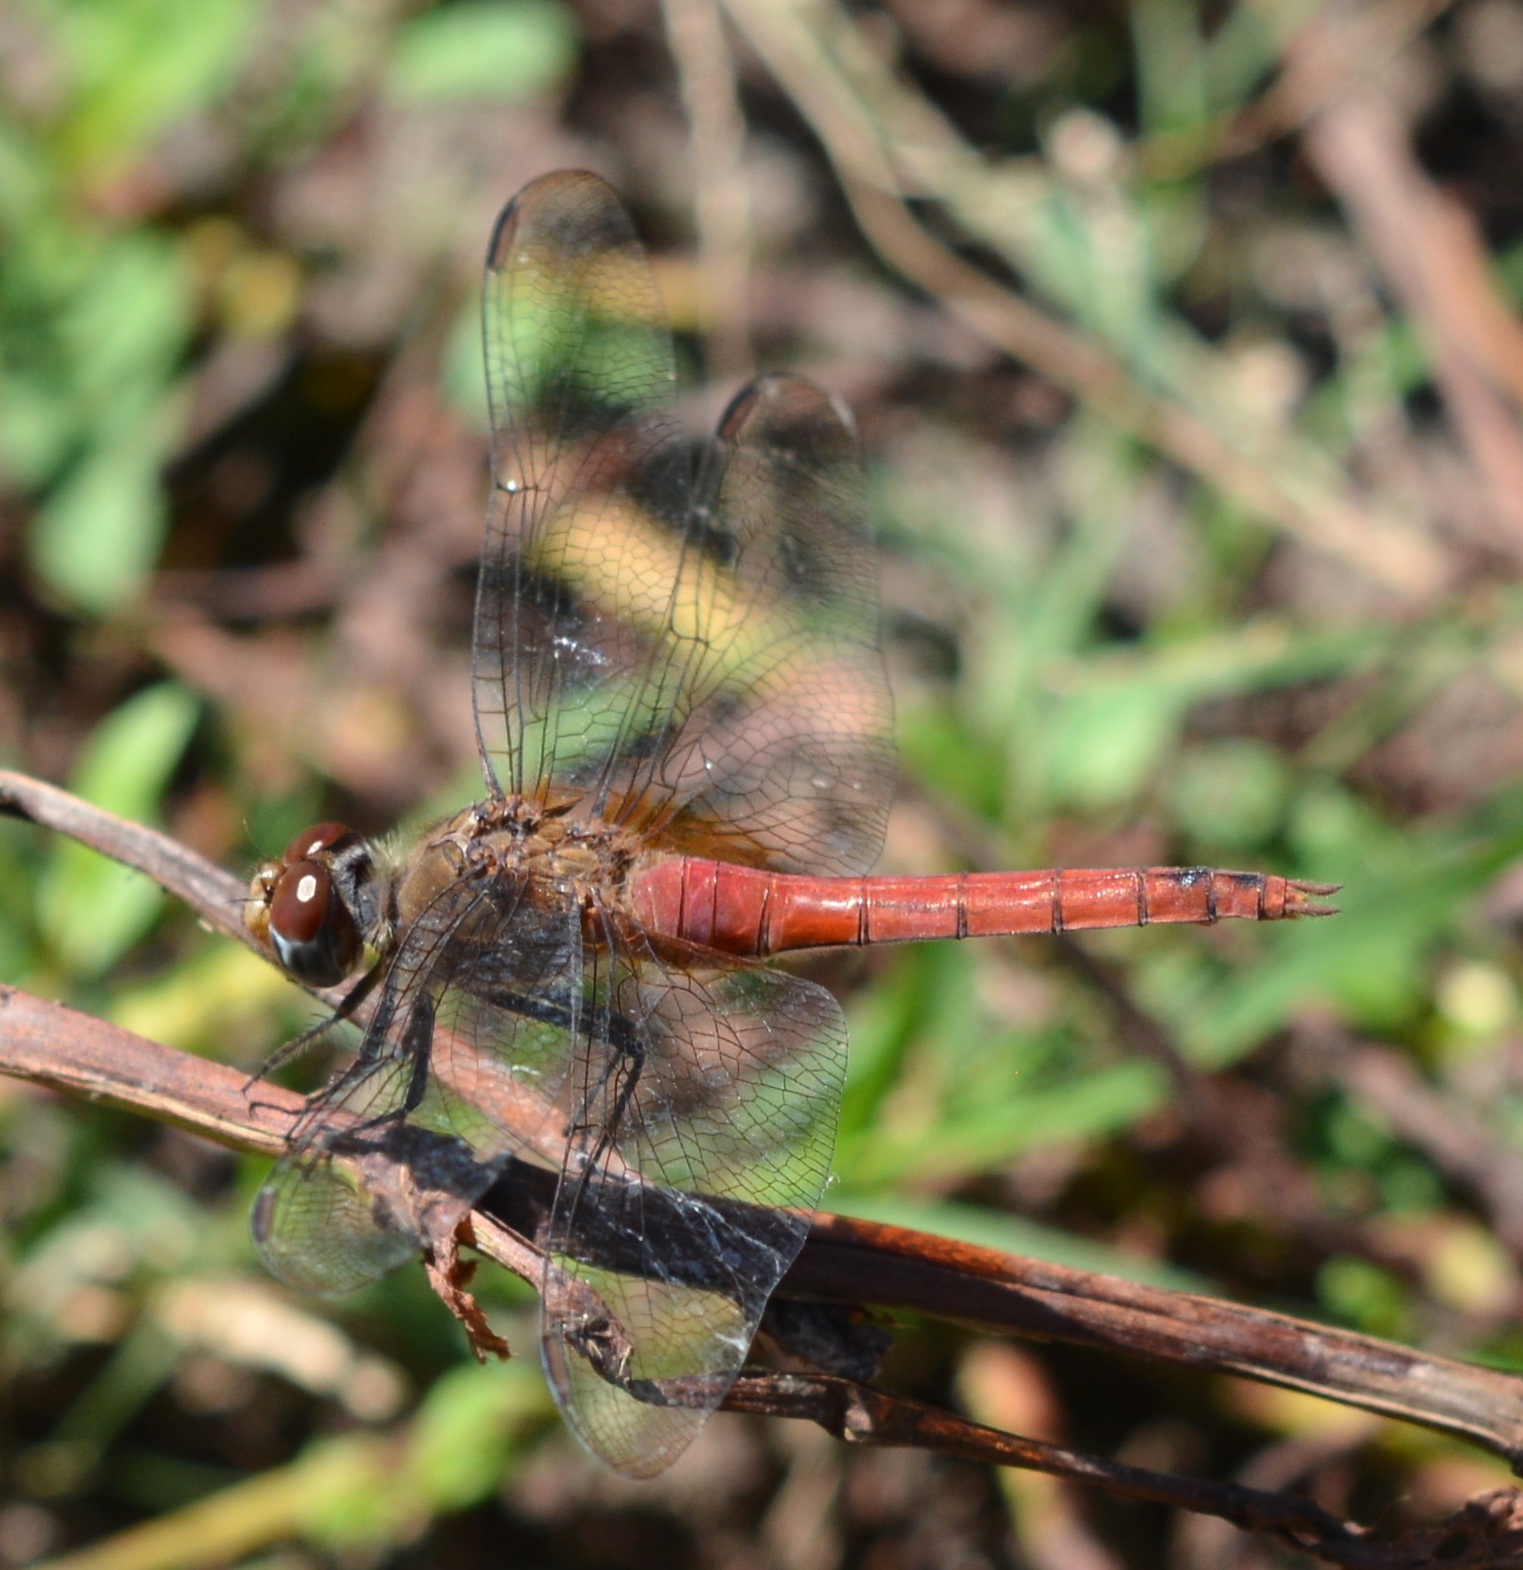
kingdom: Animalia
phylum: Arthropoda
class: Insecta
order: Odonata
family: Libellulidae
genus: Brachymesia
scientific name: Brachymesia furcata
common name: Red-taled pennant
